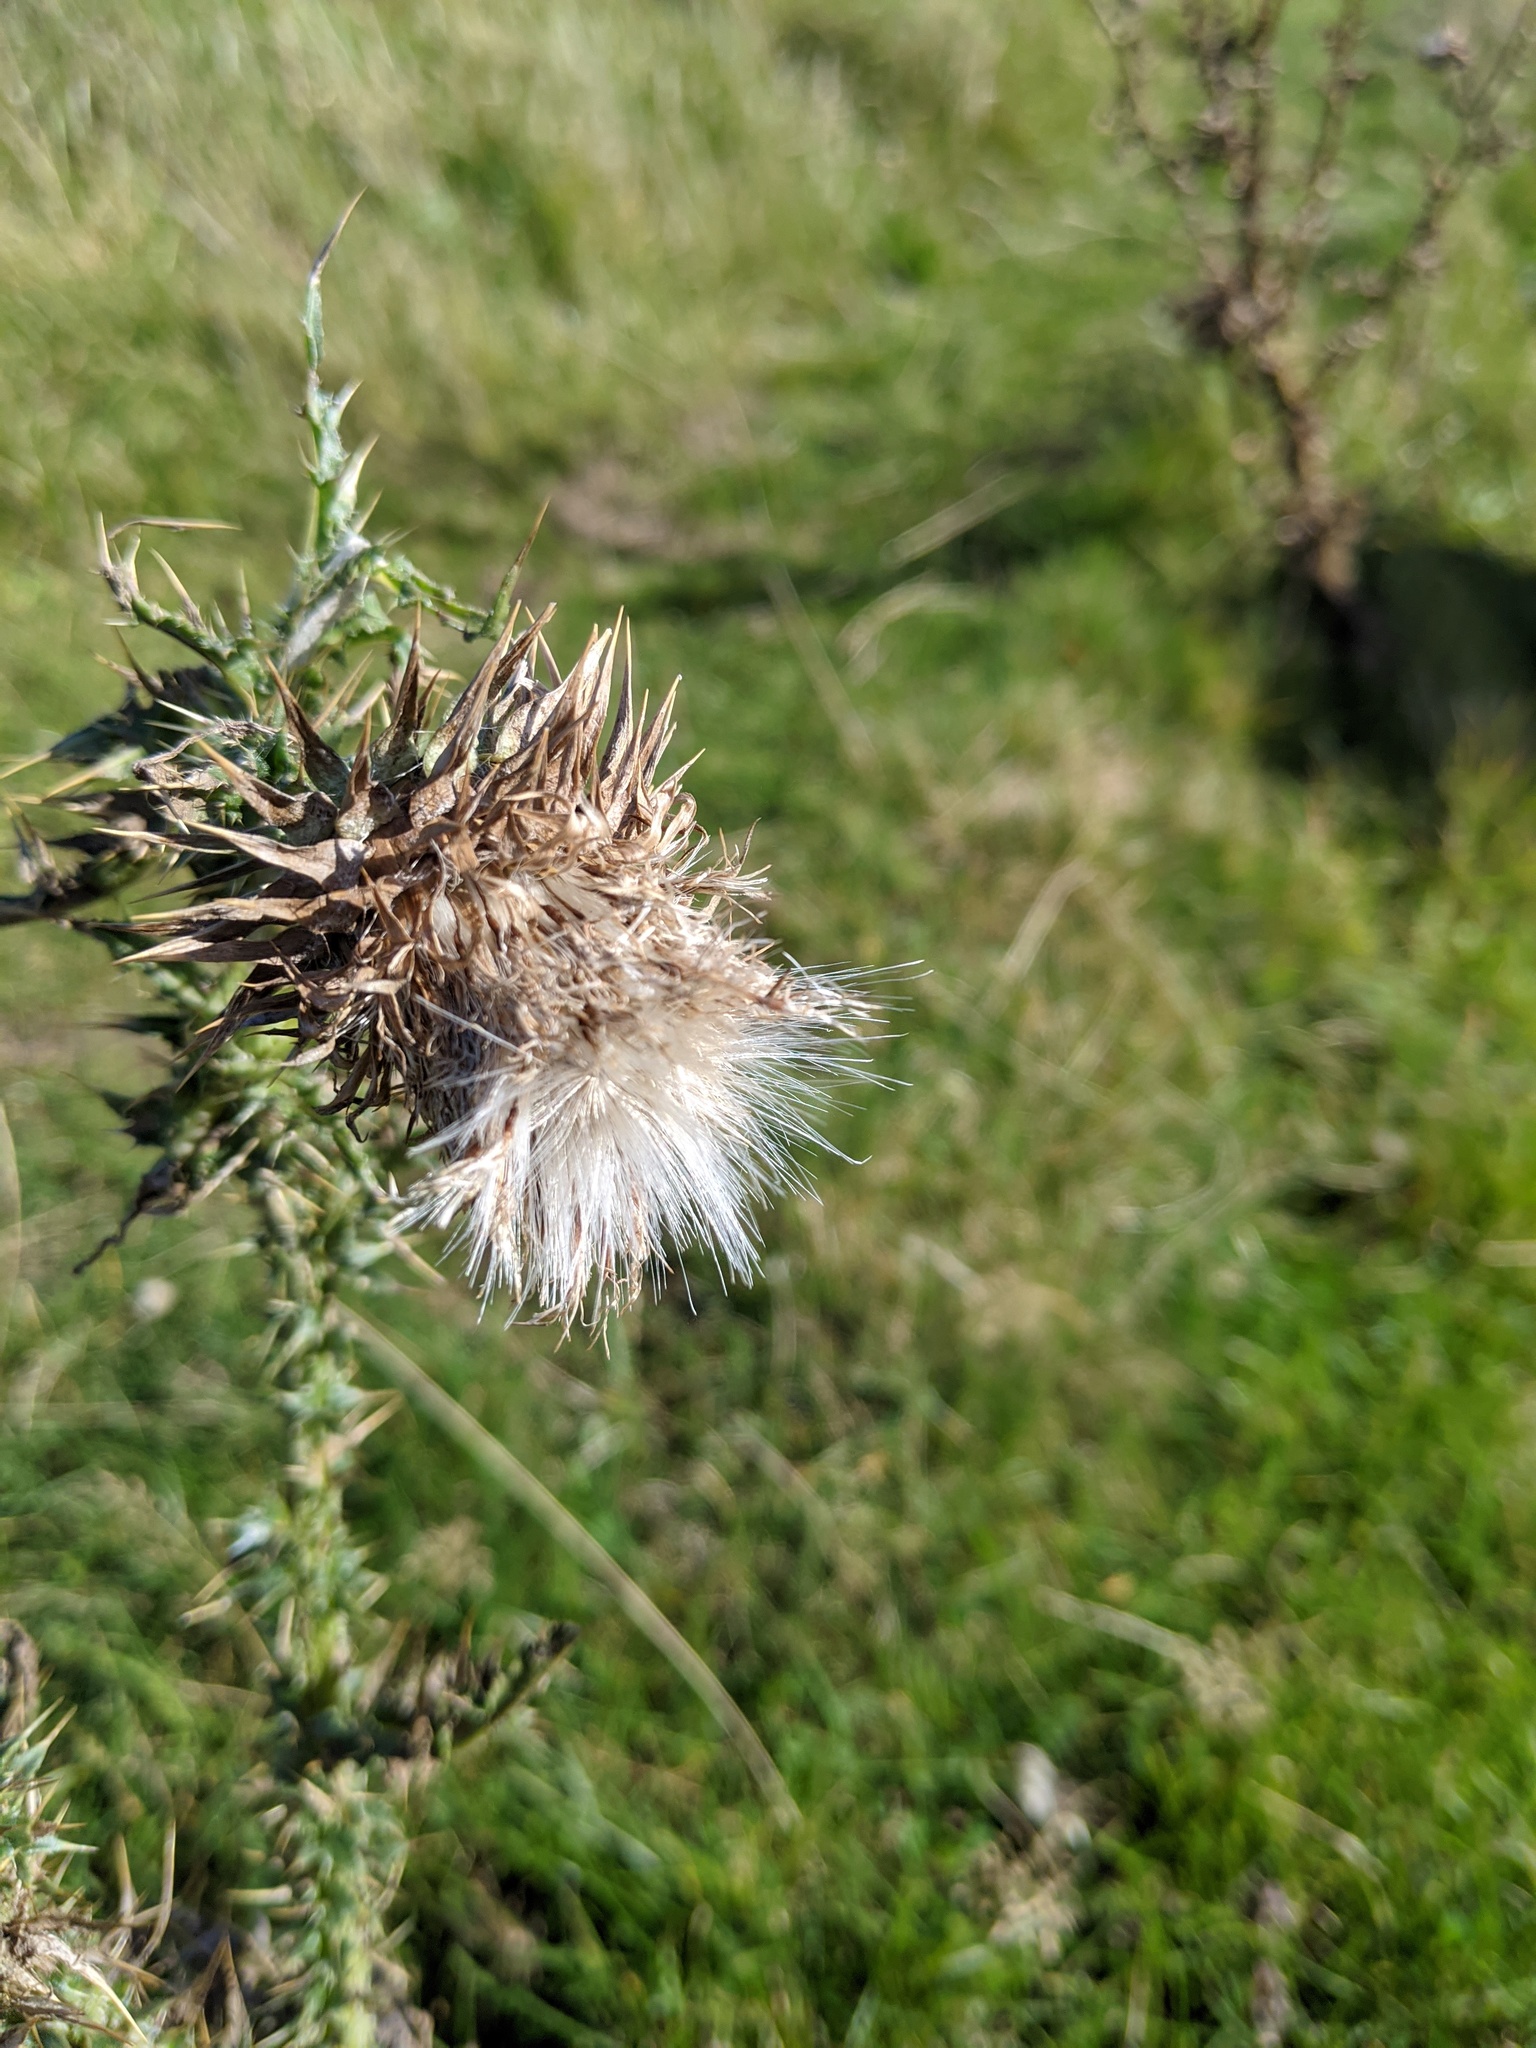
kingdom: Plantae
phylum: Tracheophyta
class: Magnoliopsida
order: Asterales
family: Asteraceae
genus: Carduus
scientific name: Carduus nutans
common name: Musk thistle
